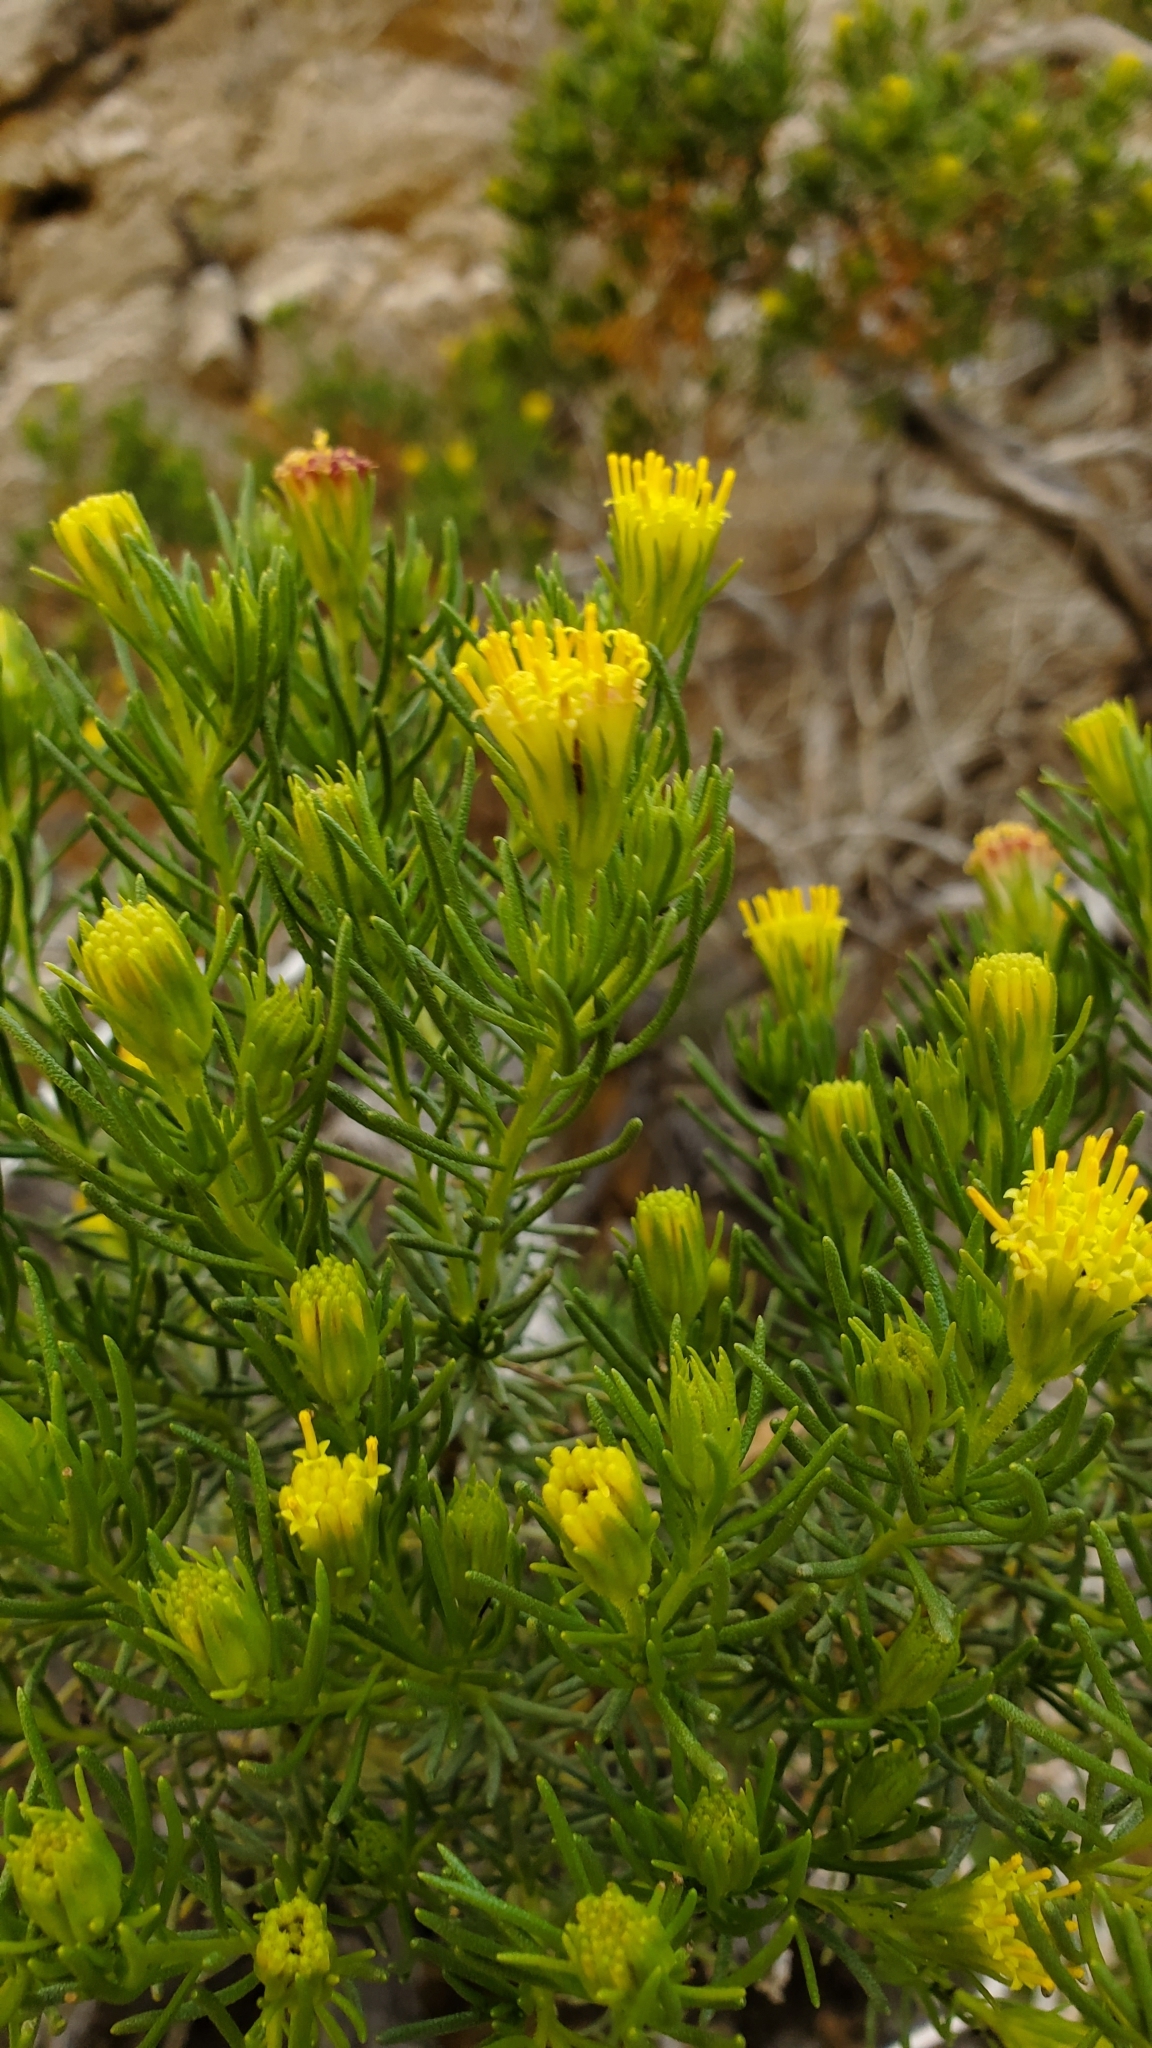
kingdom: Plantae
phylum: Tracheophyta
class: Magnoliopsida
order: Asterales
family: Asteraceae
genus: Peucephyllum
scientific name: Peucephyllum schottii
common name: Pygmy-cedar
